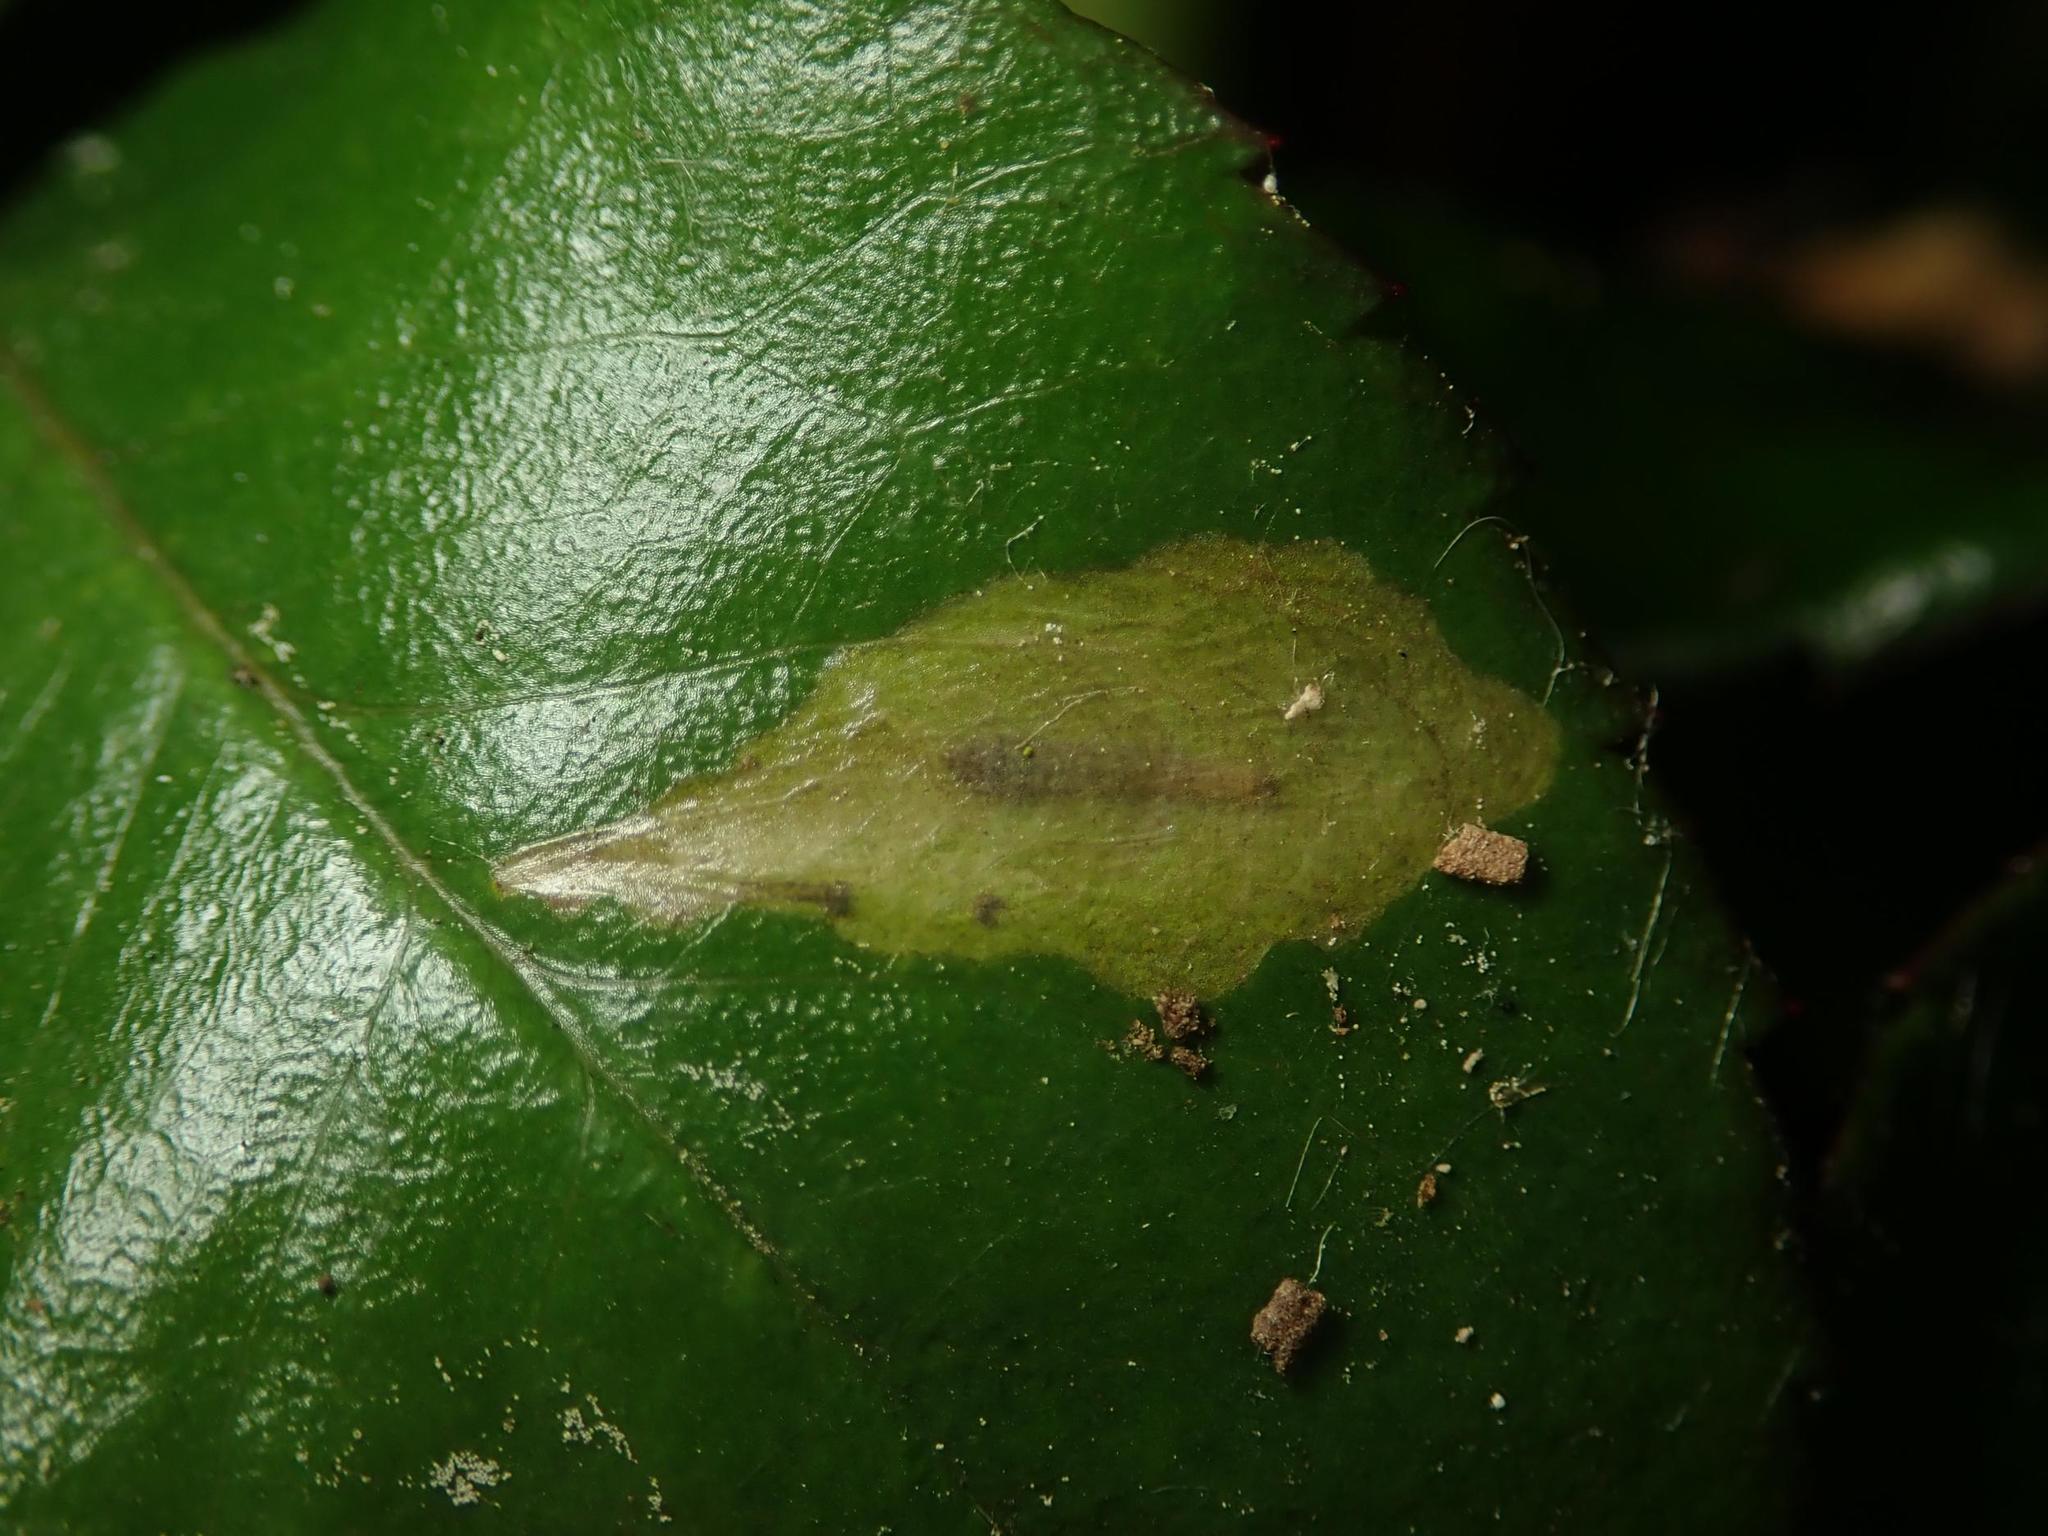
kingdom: Animalia
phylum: Arthropoda
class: Insecta
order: Lepidoptera
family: Tischeriidae
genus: Coptotriche
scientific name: Coptotriche angusticolella
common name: Rose carl
